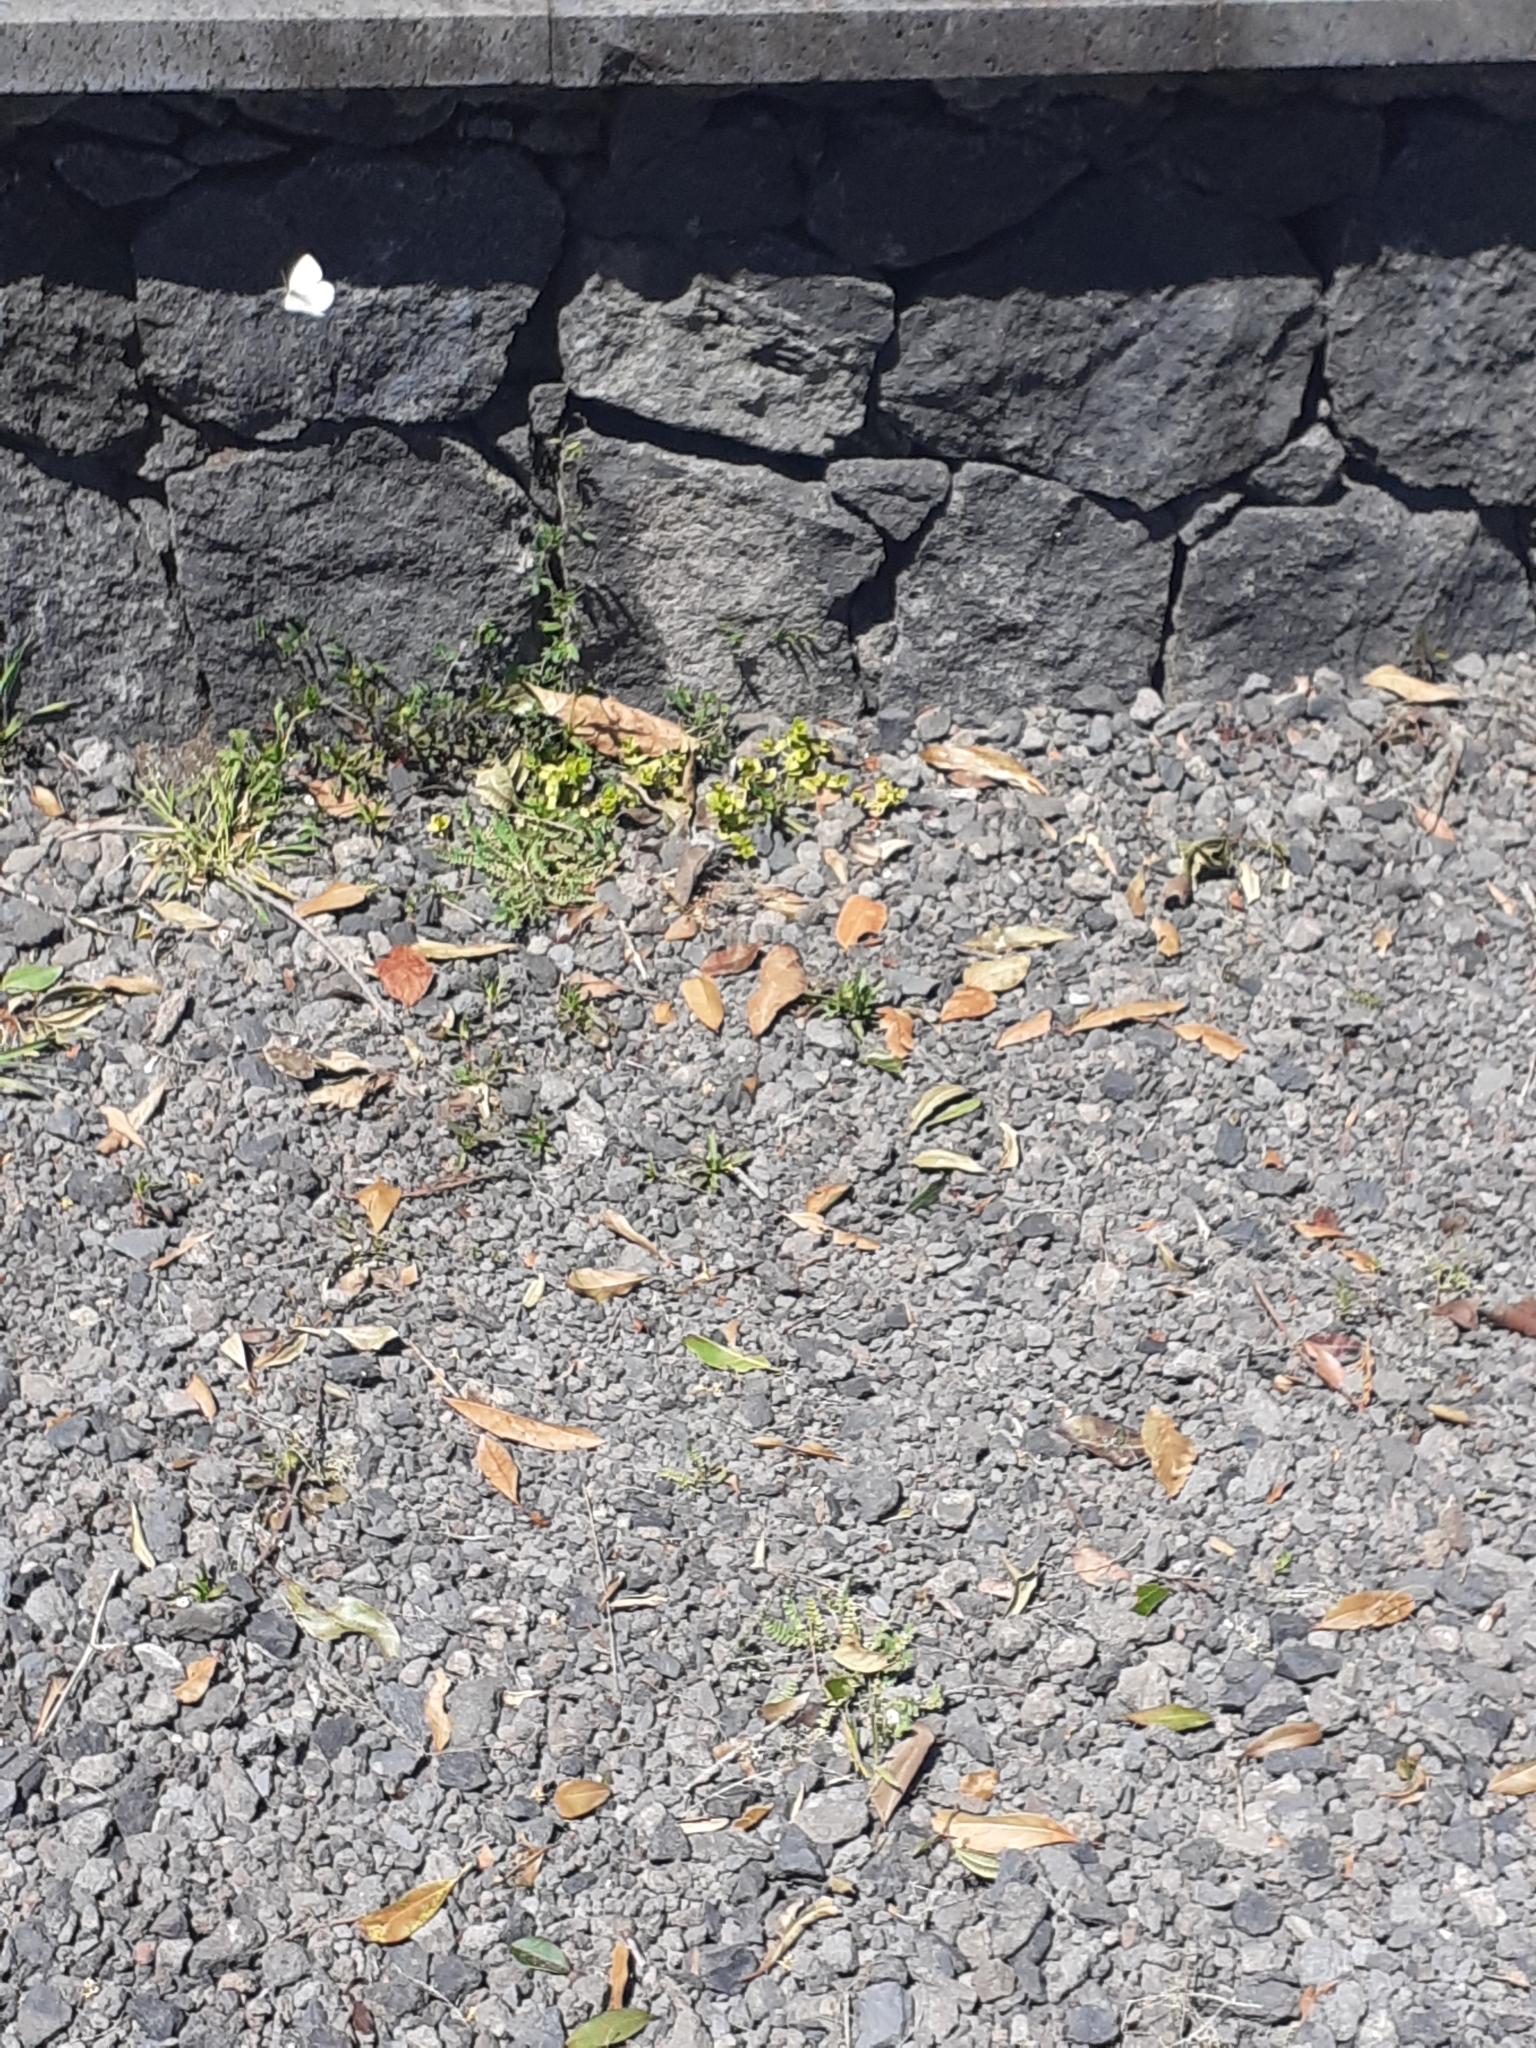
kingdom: Animalia
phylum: Arthropoda
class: Insecta
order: Lepidoptera
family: Pieridae
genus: Pieris
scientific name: Pieris rapae
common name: Small white
